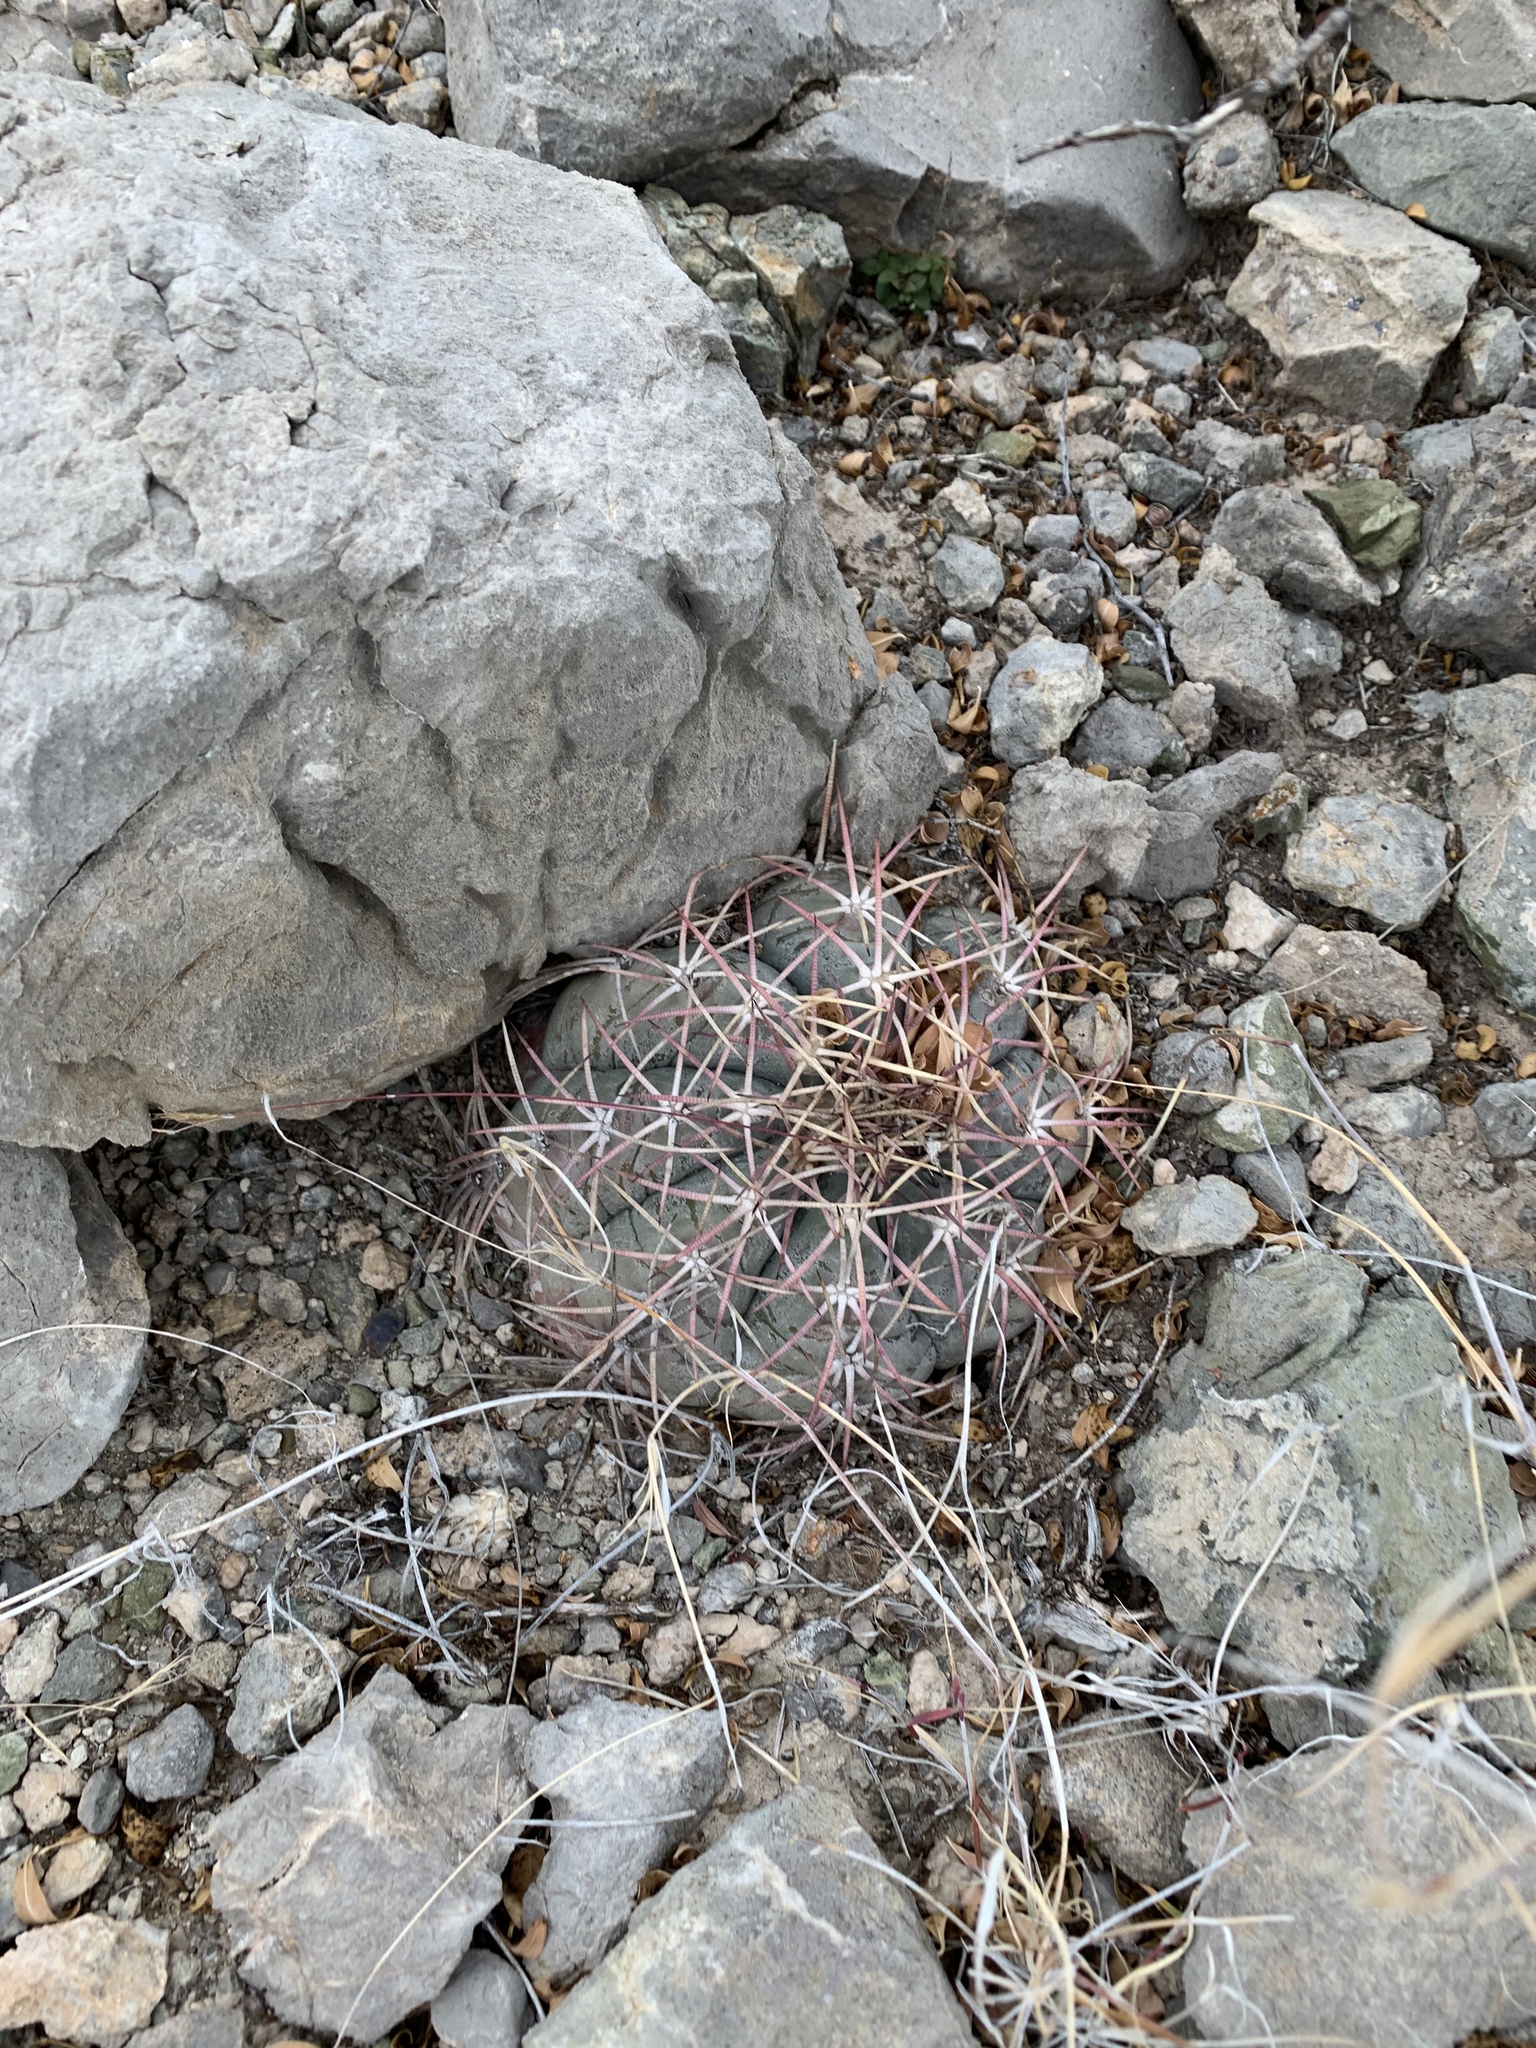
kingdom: Plantae
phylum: Tracheophyta
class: Magnoliopsida
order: Caryophyllales
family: Cactaceae
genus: Echinocactus
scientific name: Echinocactus horizonthalonius
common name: Devilshead
